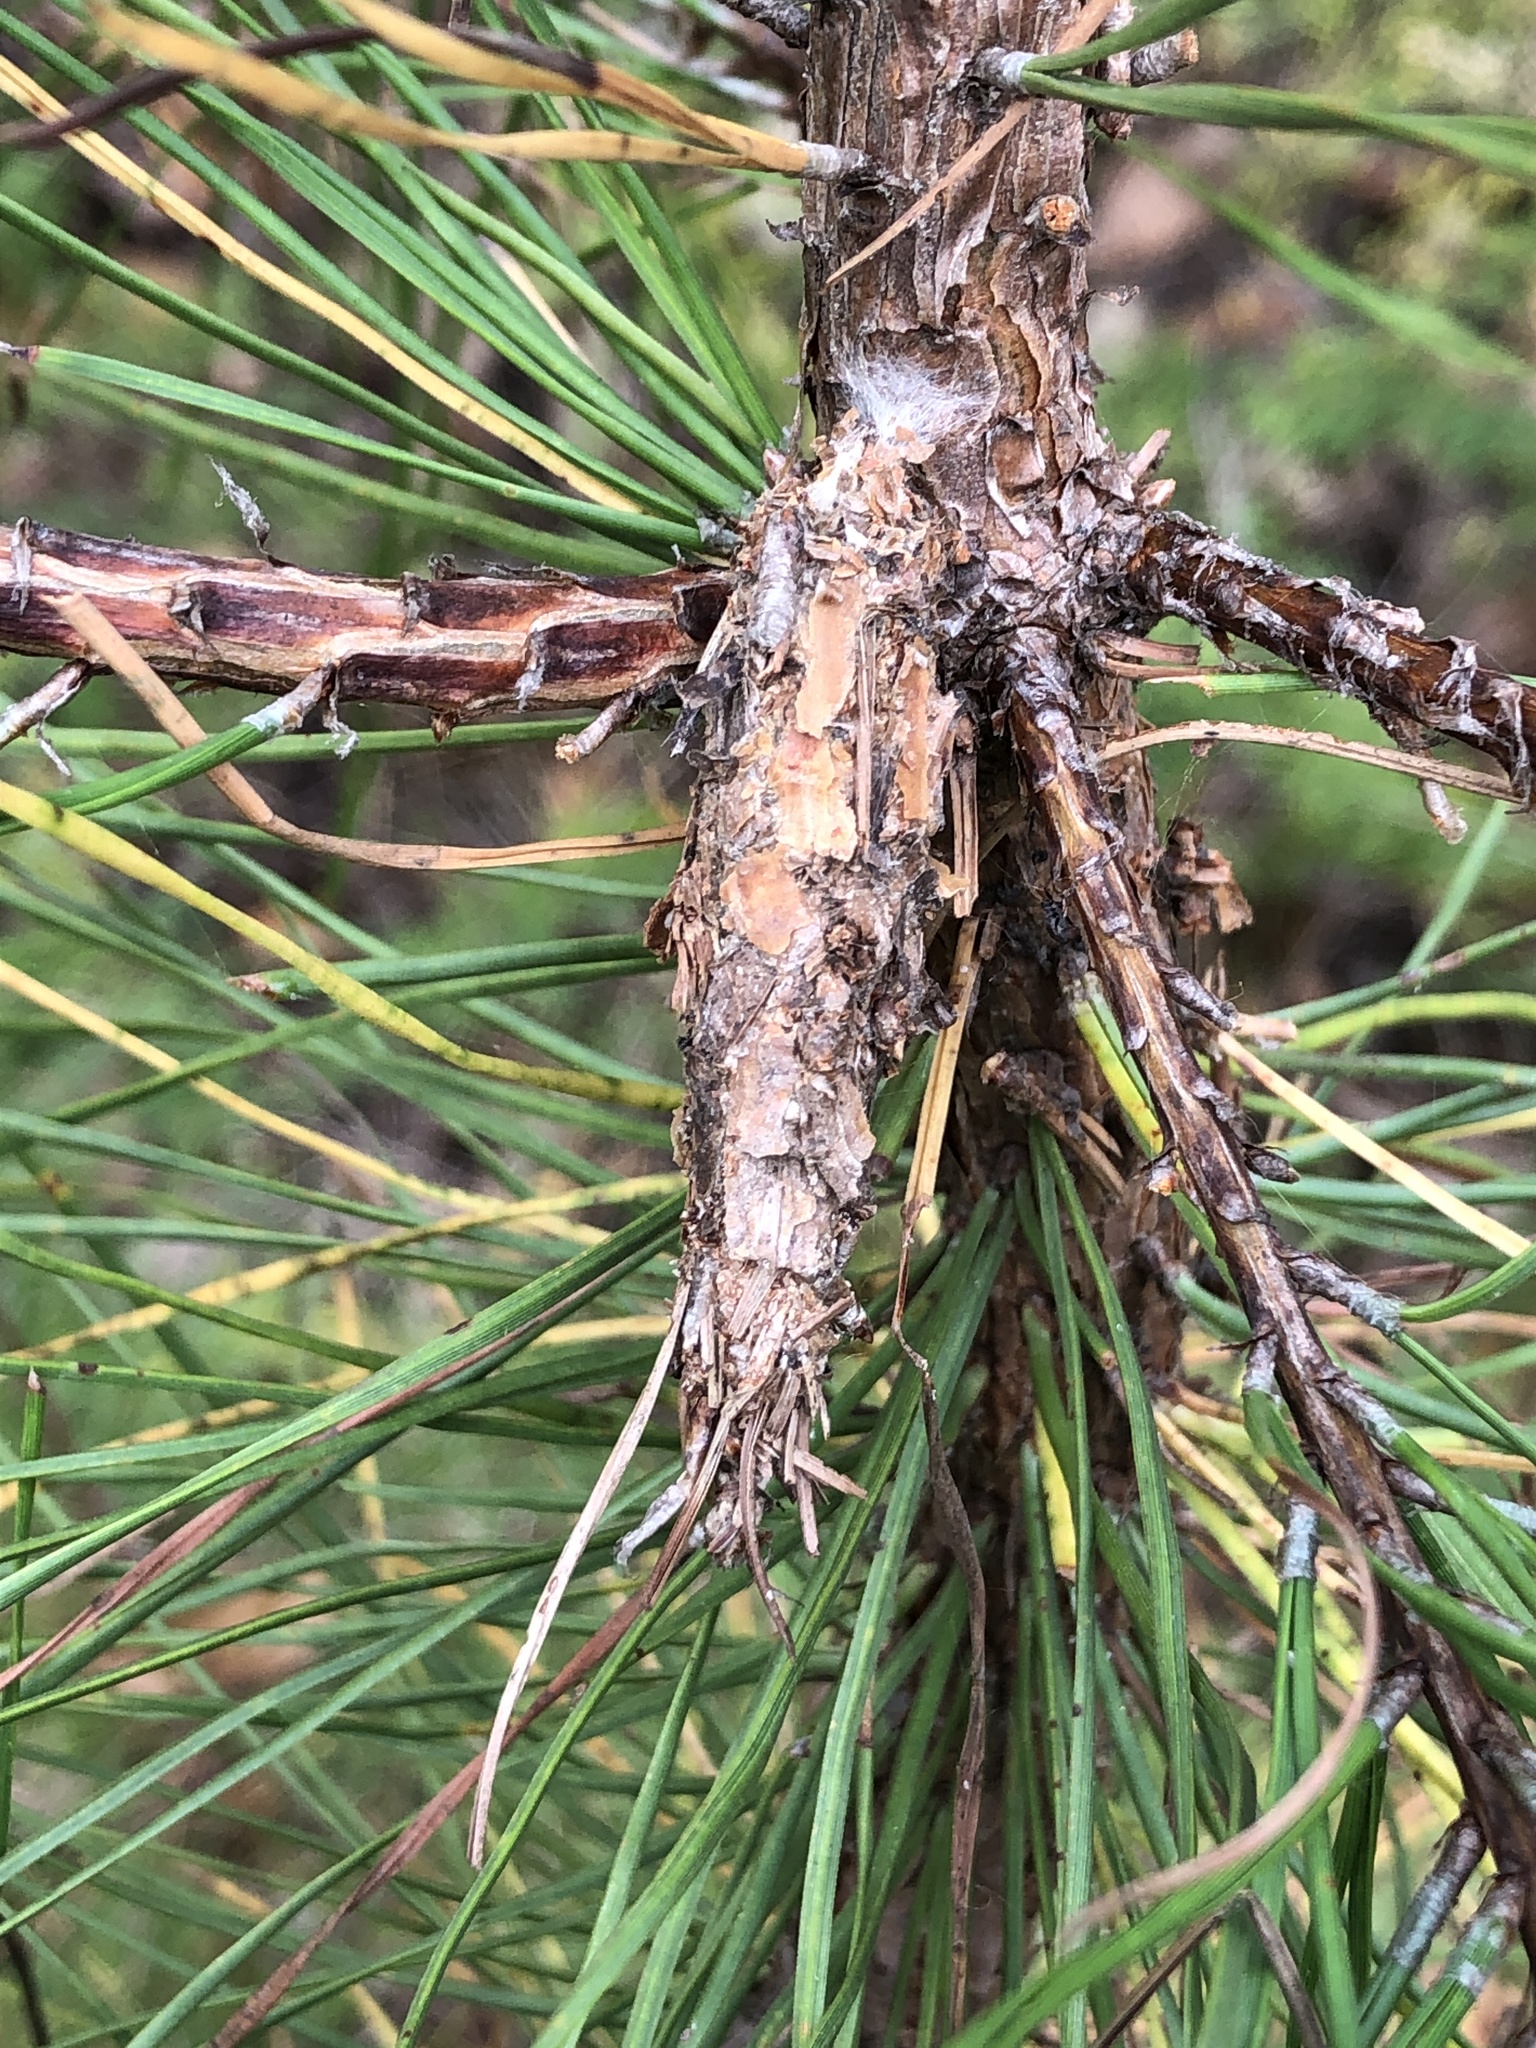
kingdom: Animalia
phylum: Arthropoda
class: Insecta
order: Lepidoptera
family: Psychidae
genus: Thyridopteryx
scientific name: Thyridopteryx ephemeraeformis
